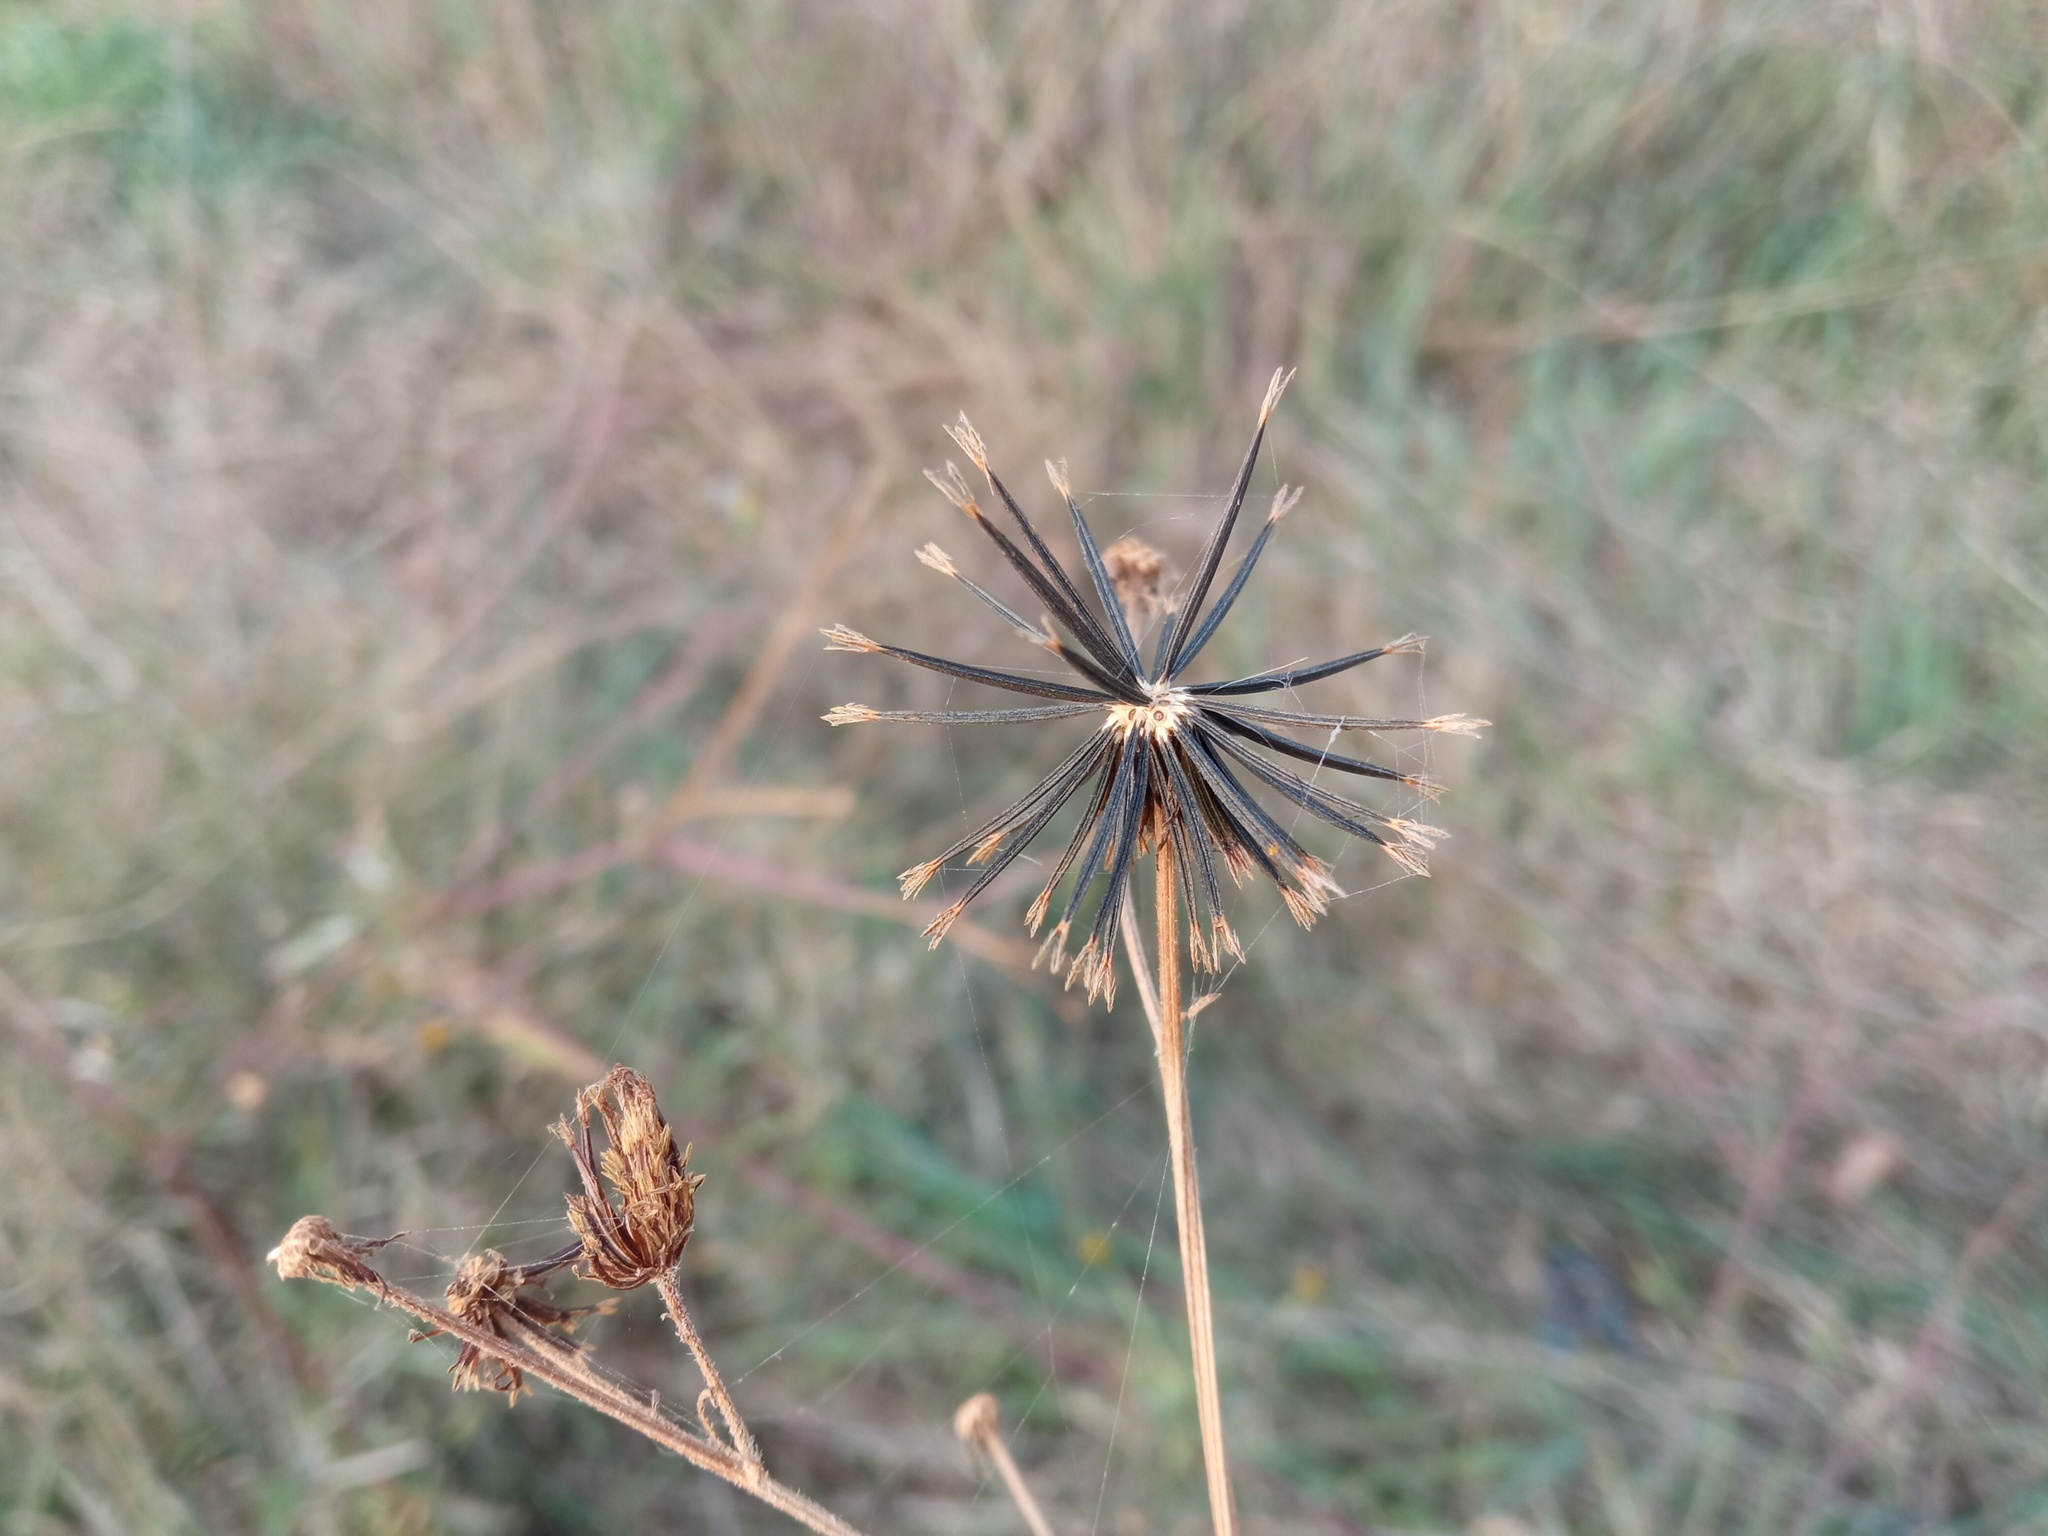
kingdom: Plantae
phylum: Tracheophyta
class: Magnoliopsida
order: Asterales
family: Asteraceae
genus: Bidens
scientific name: Bidens subalternans
